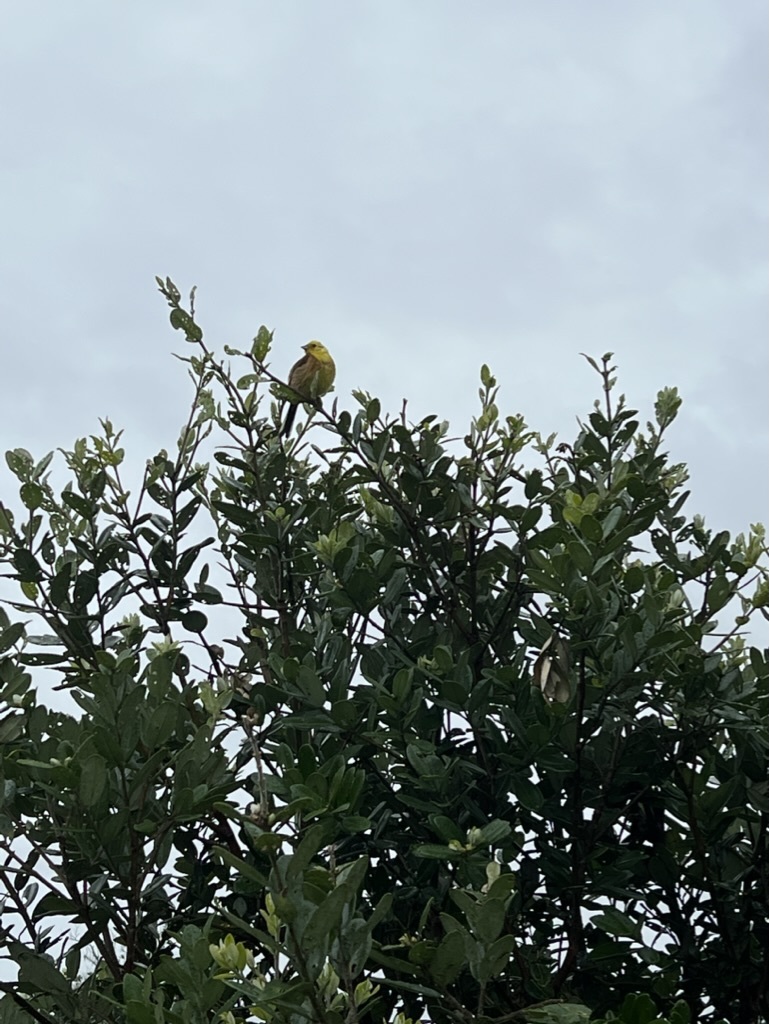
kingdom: Animalia
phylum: Chordata
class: Aves
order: Passeriformes
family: Emberizidae
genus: Emberiza
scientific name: Emberiza citrinella
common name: Yellowhammer
